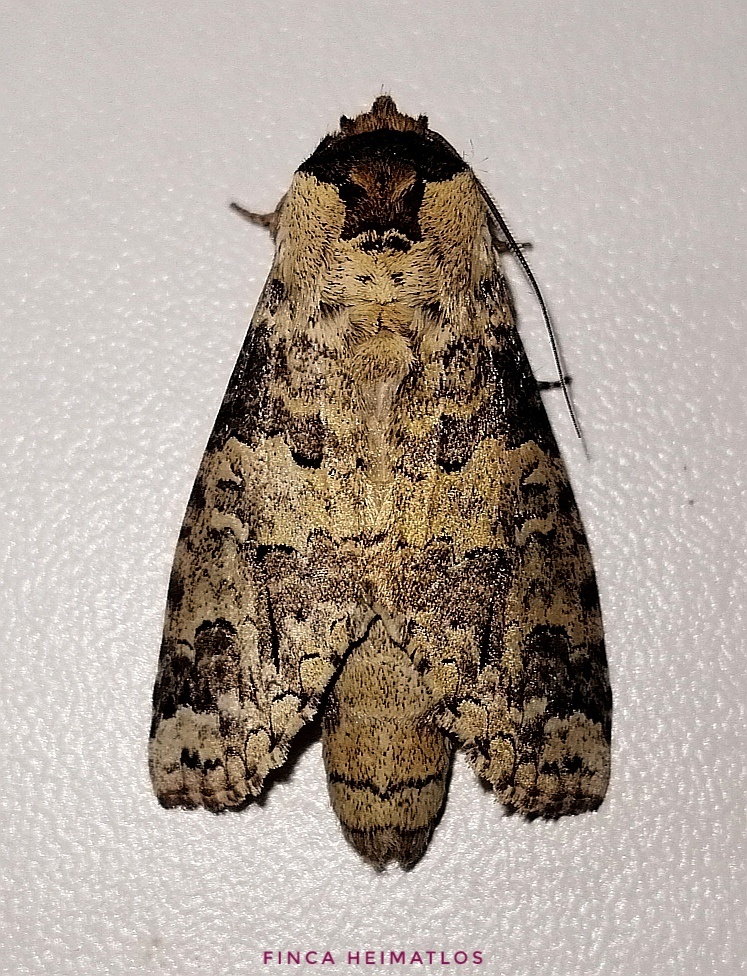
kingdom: Animalia
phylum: Arthropoda
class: Insecta
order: Lepidoptera
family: Notodontidae
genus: Sericochroa
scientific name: Sericochroa hymen
